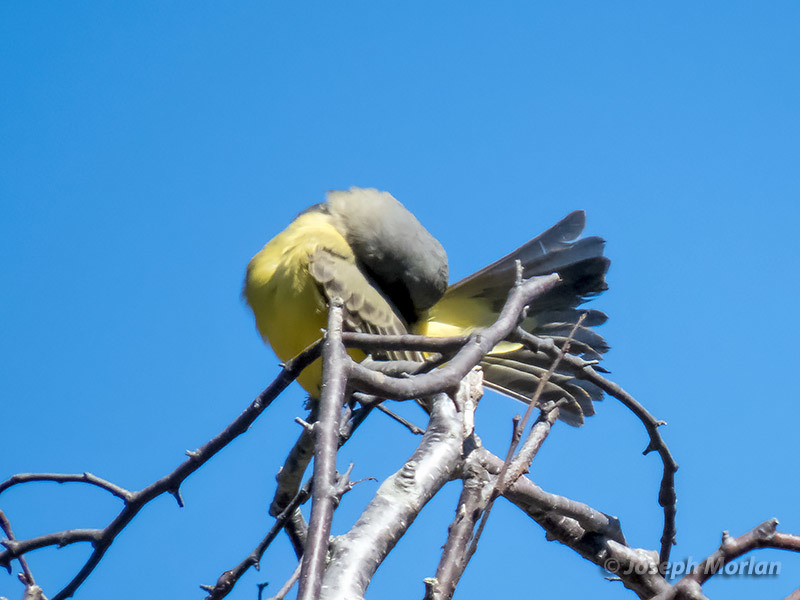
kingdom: Animalia
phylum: Chordata
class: Aves
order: Passeriformes
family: Tyrannidae
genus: Tyrannus
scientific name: Tyrannus melancholicus
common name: Tropical kingbird
